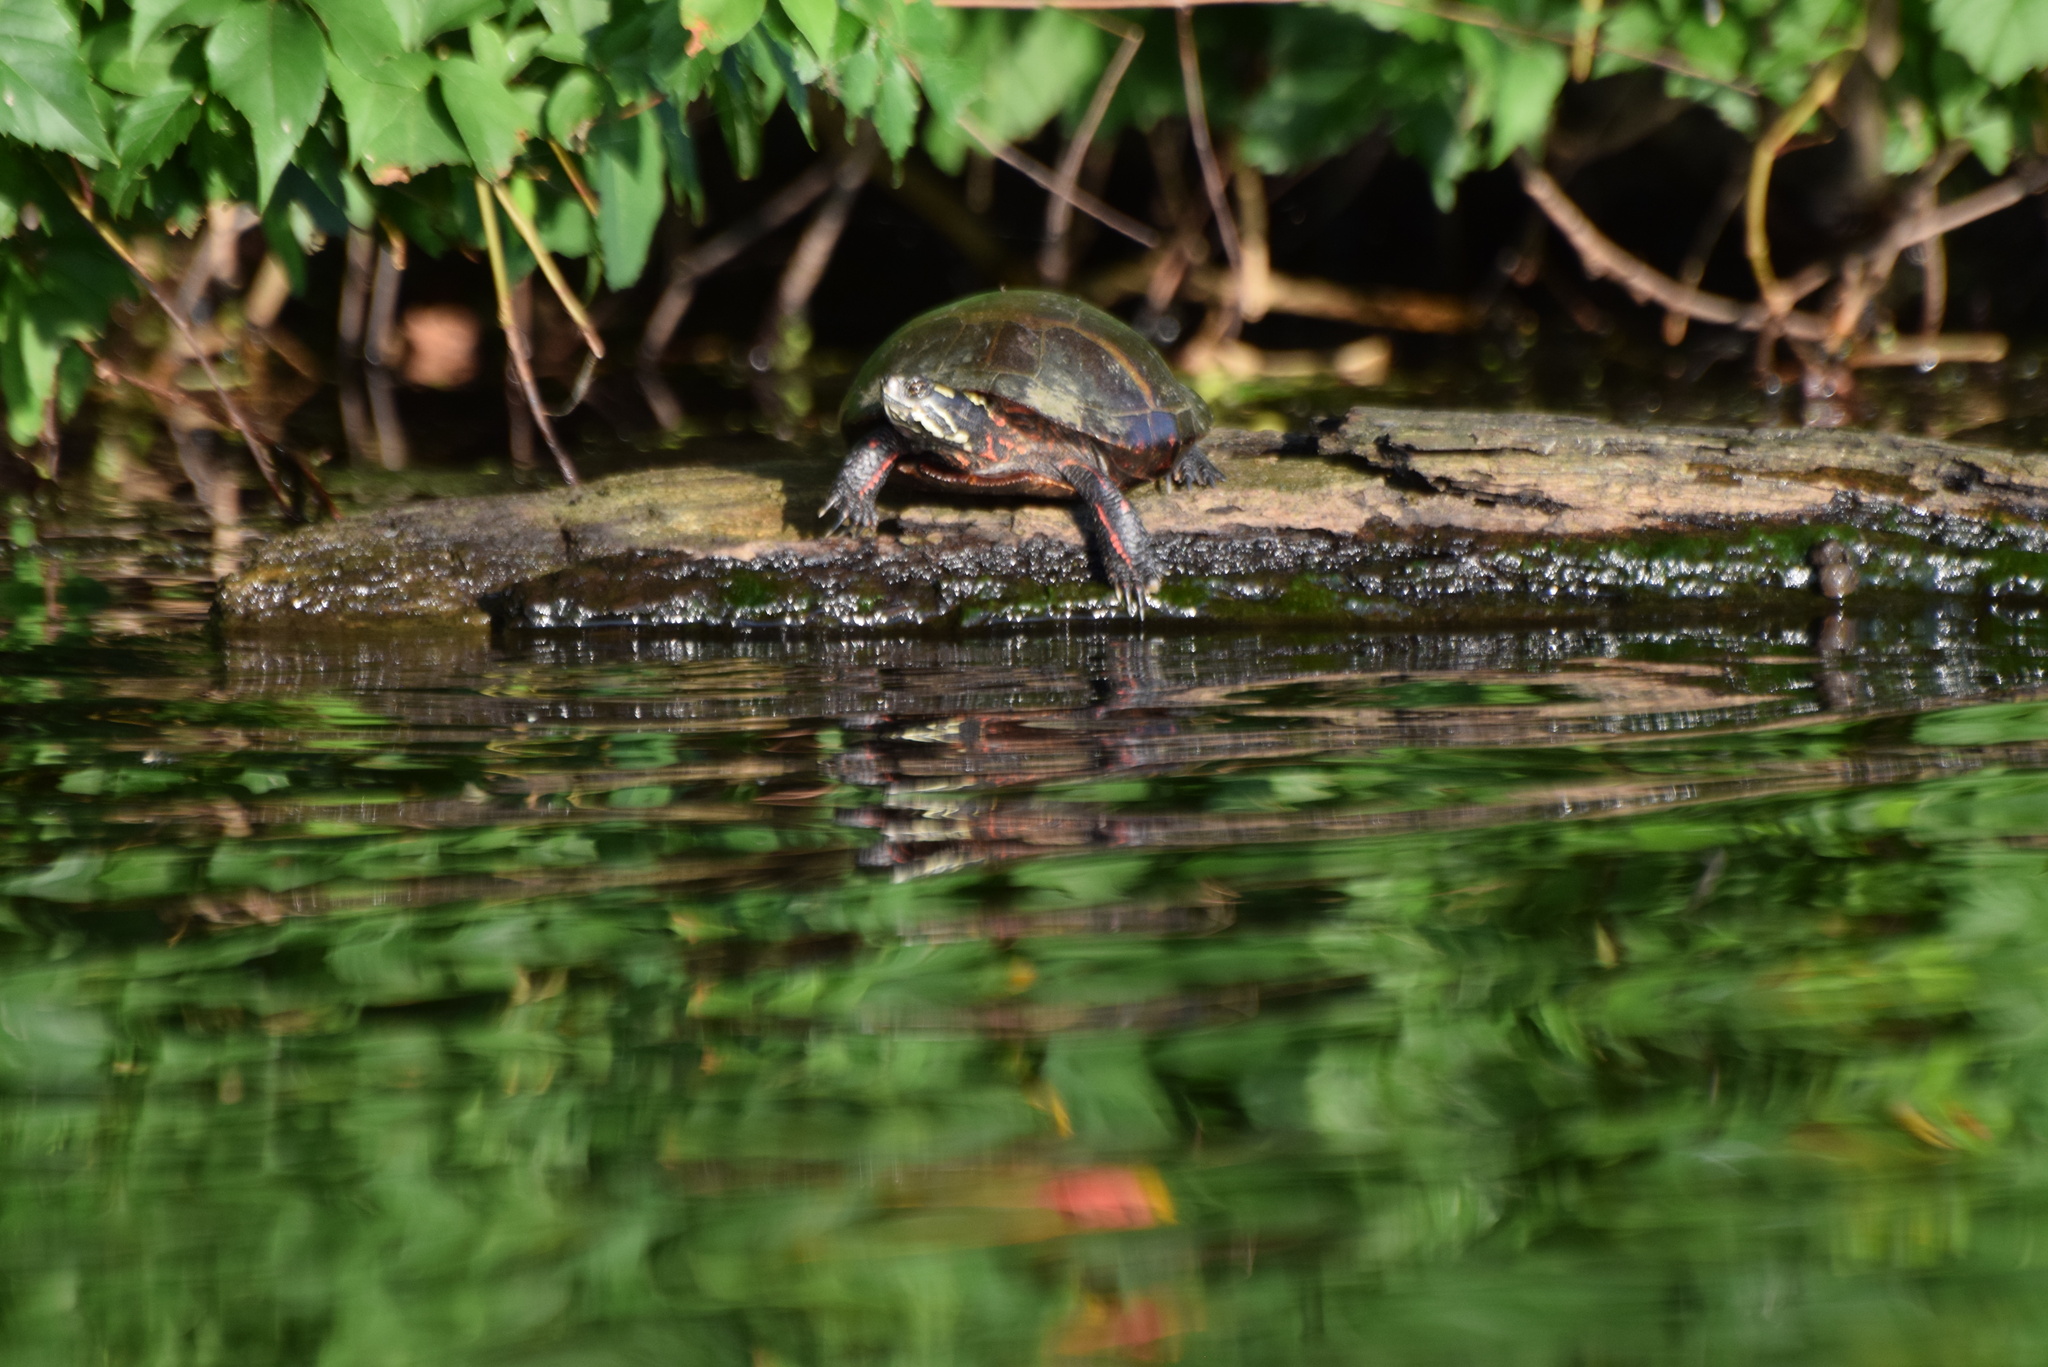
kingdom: Animalia
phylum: Chordata
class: Testudines
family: Emydidae
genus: Chrysemys
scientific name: Chrysemys picta
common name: Painted turtle
